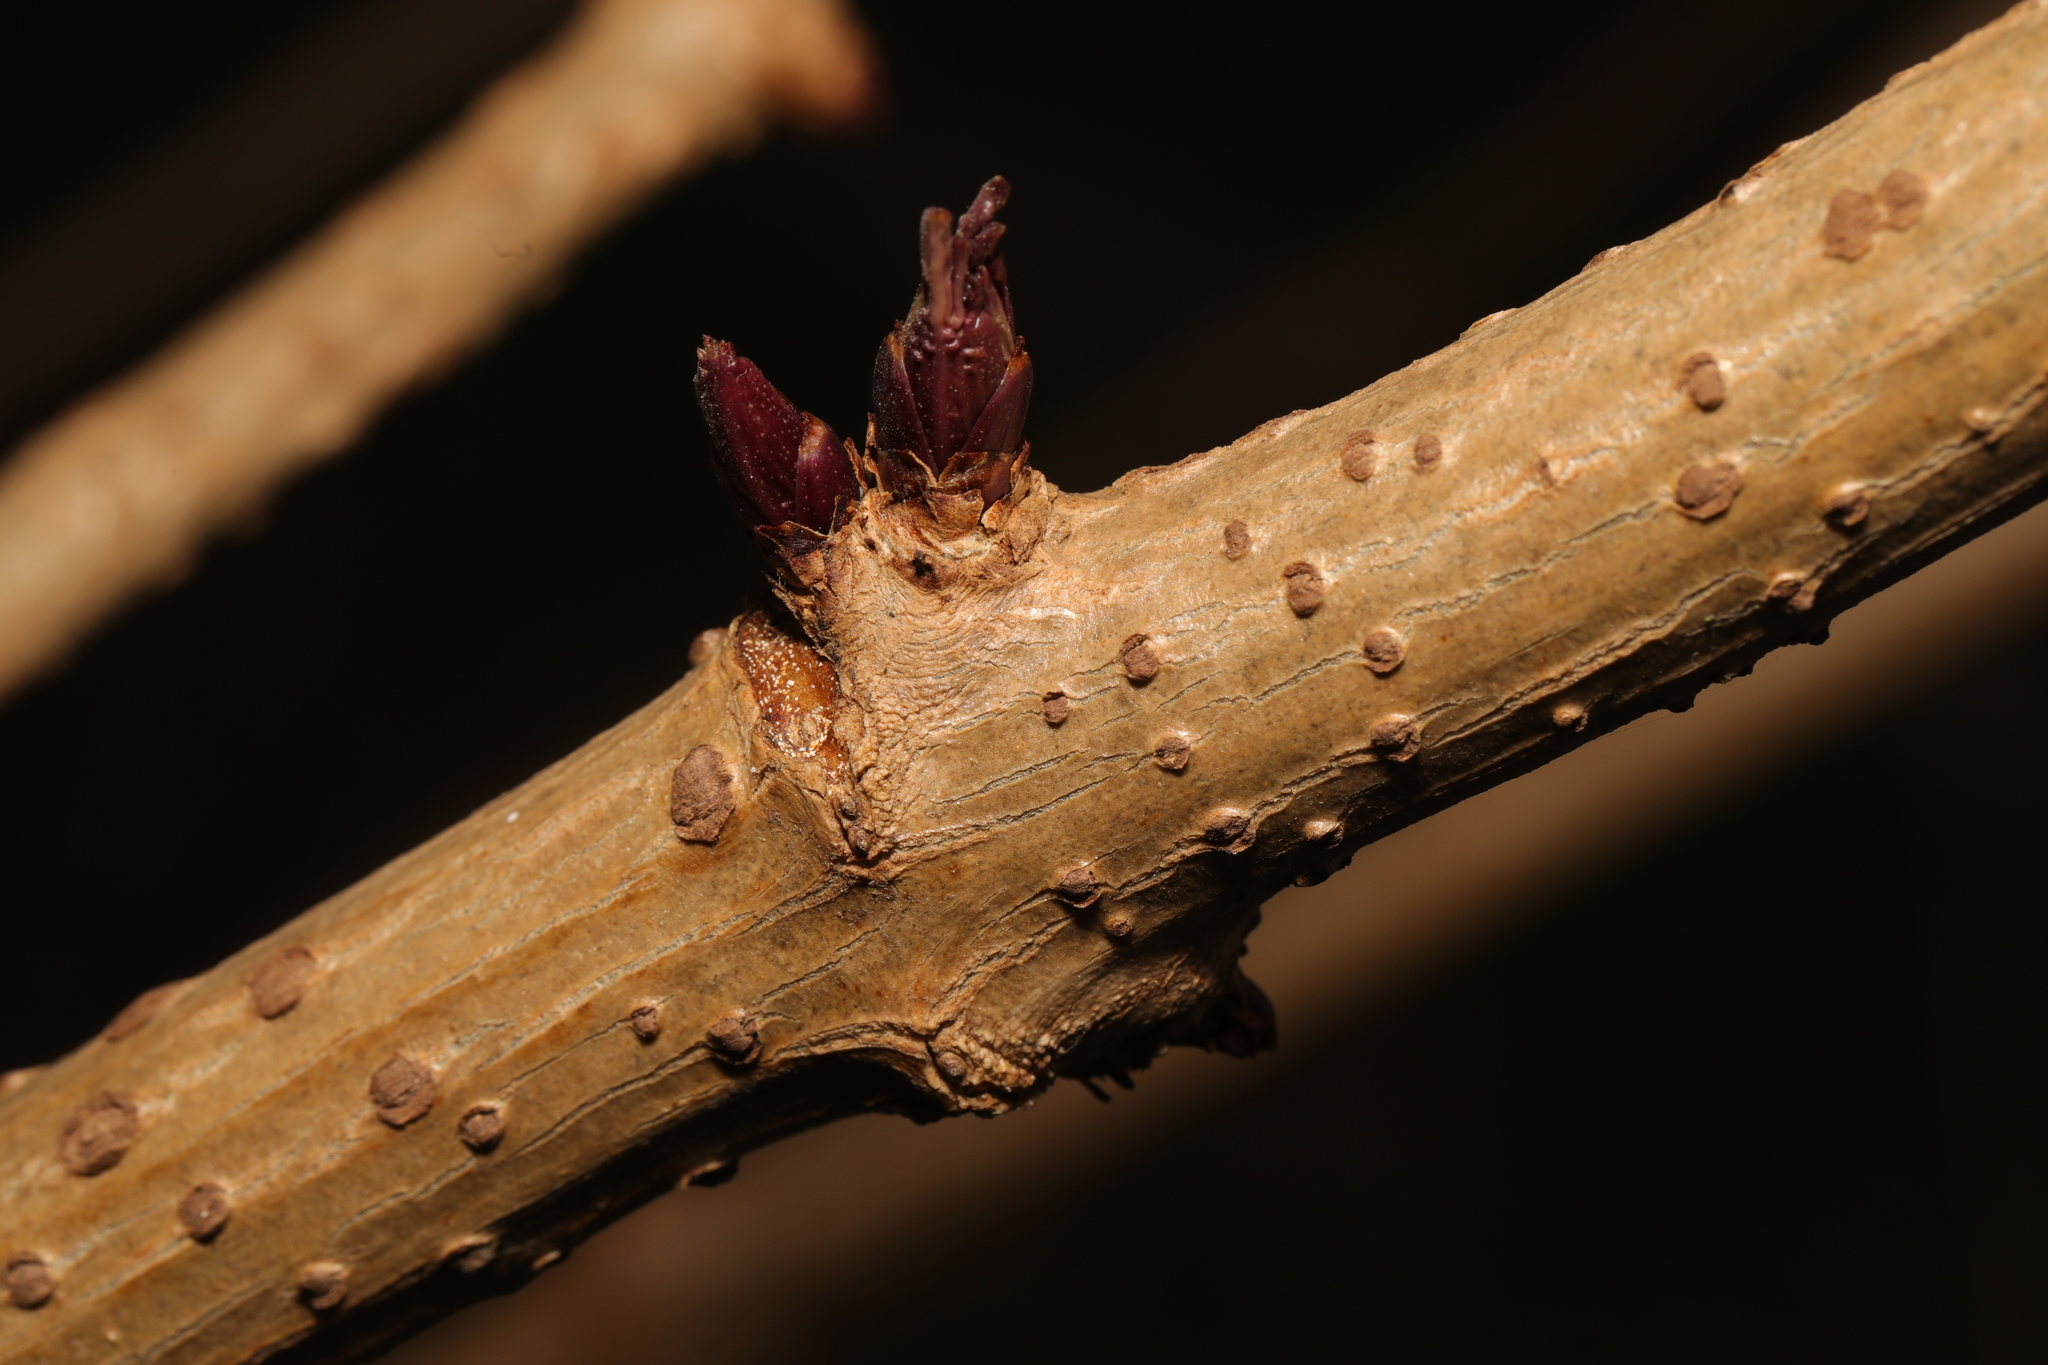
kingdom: Plantae
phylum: Tracheophyta
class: Magnoliopsida
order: Dipsacales
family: Viburnaceae
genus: Sambucus
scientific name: Sambucus nigra
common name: Elder
